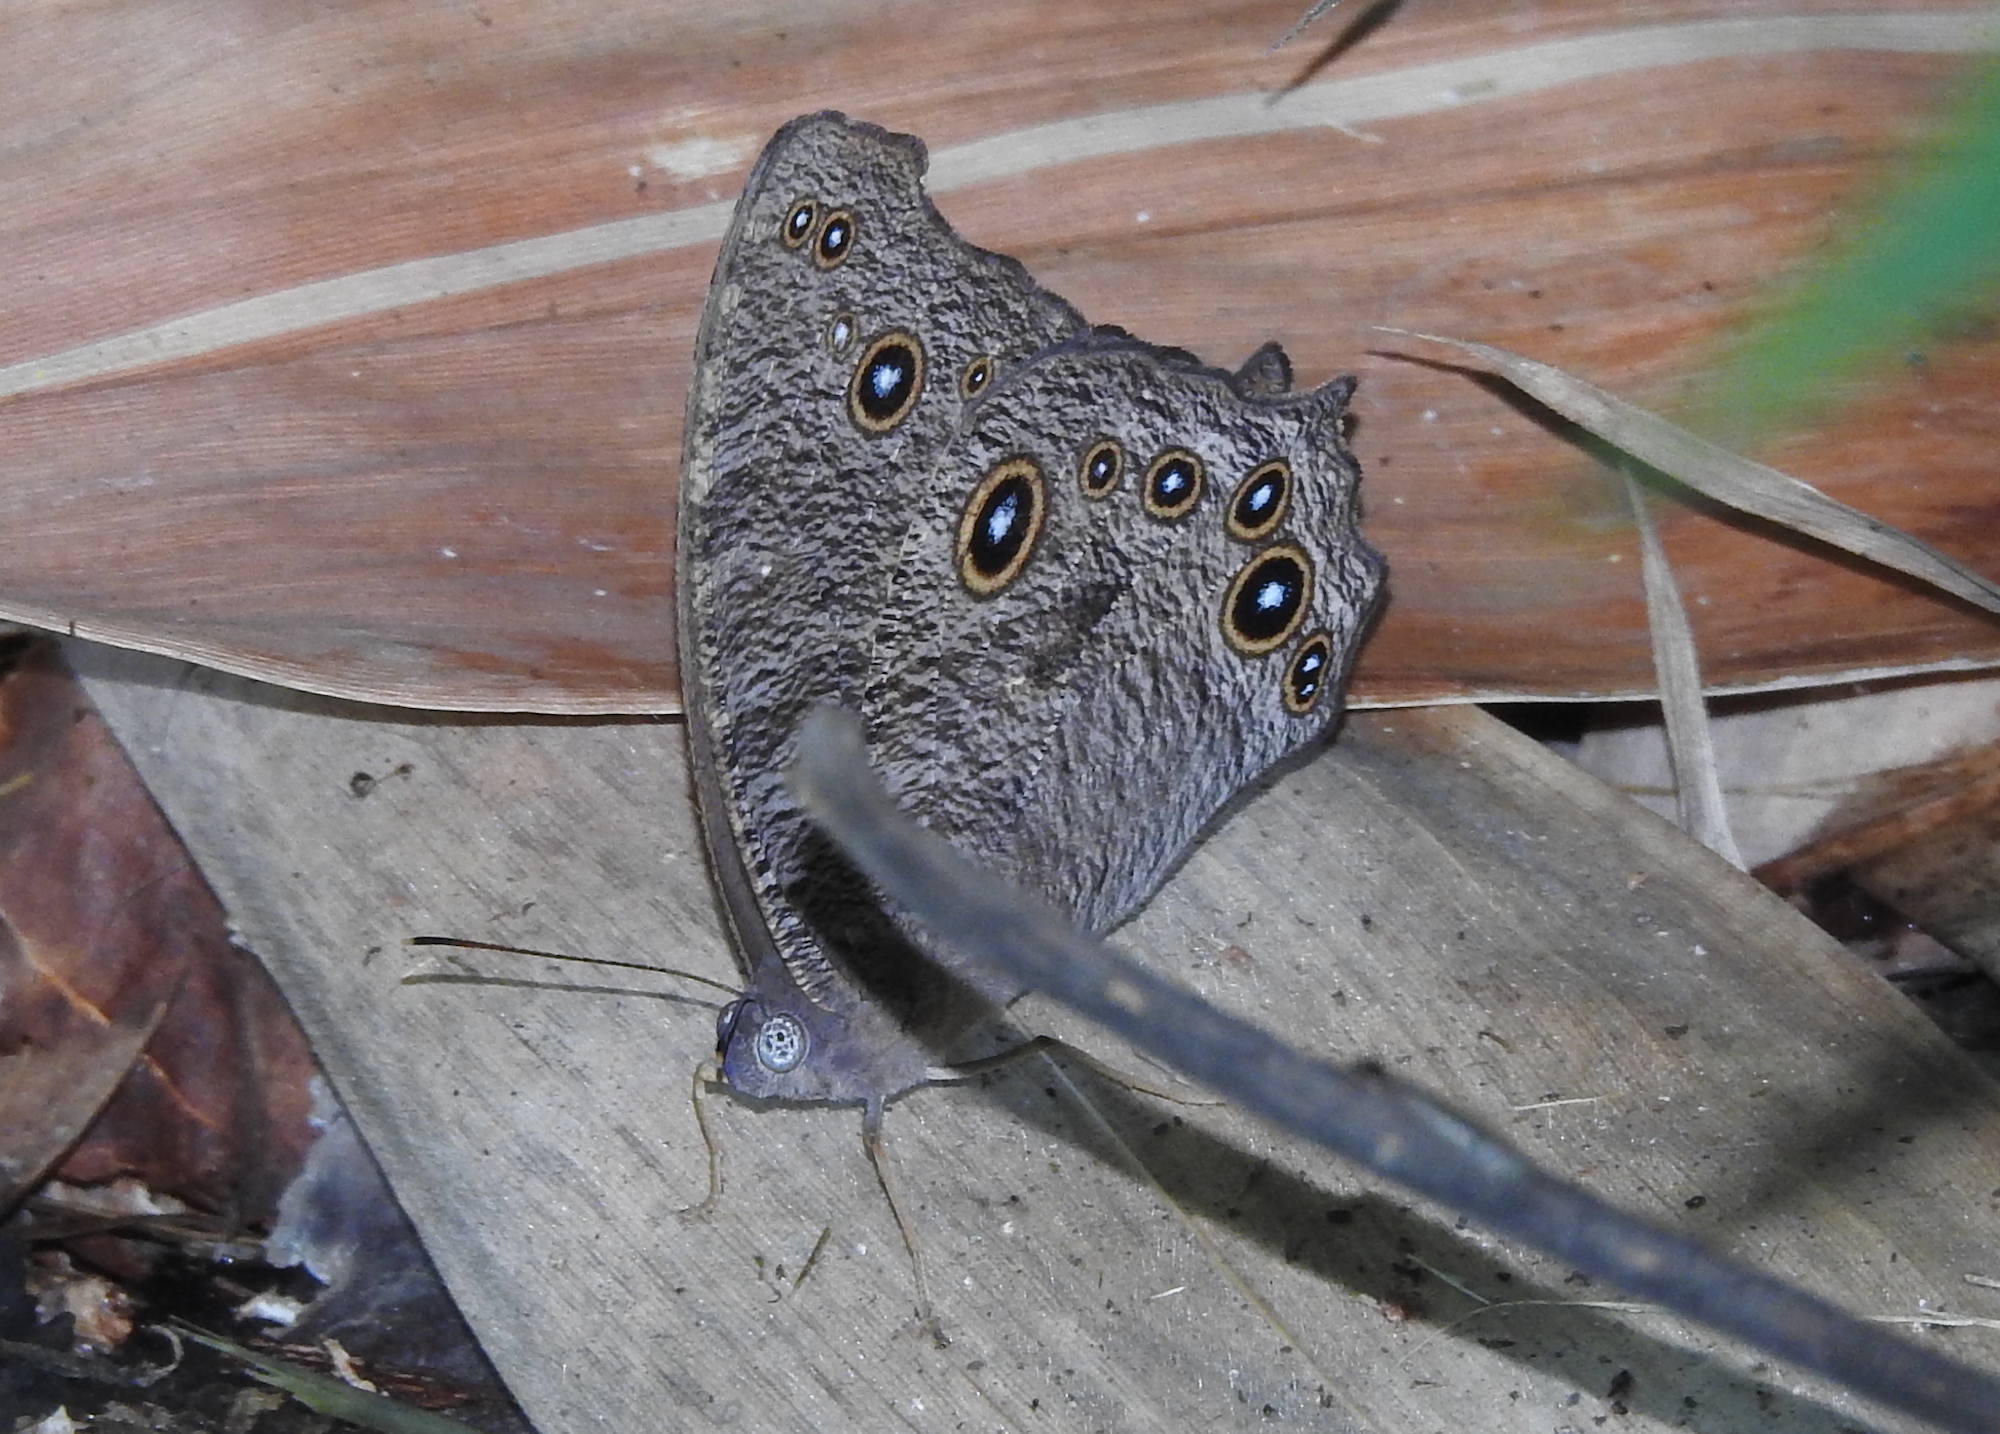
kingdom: Animalia
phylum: Arthropoda
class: Insecta
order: Lepidoptera
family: Nymphalidae
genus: Melanitis
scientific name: Melanitis leda
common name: Twilight brown
